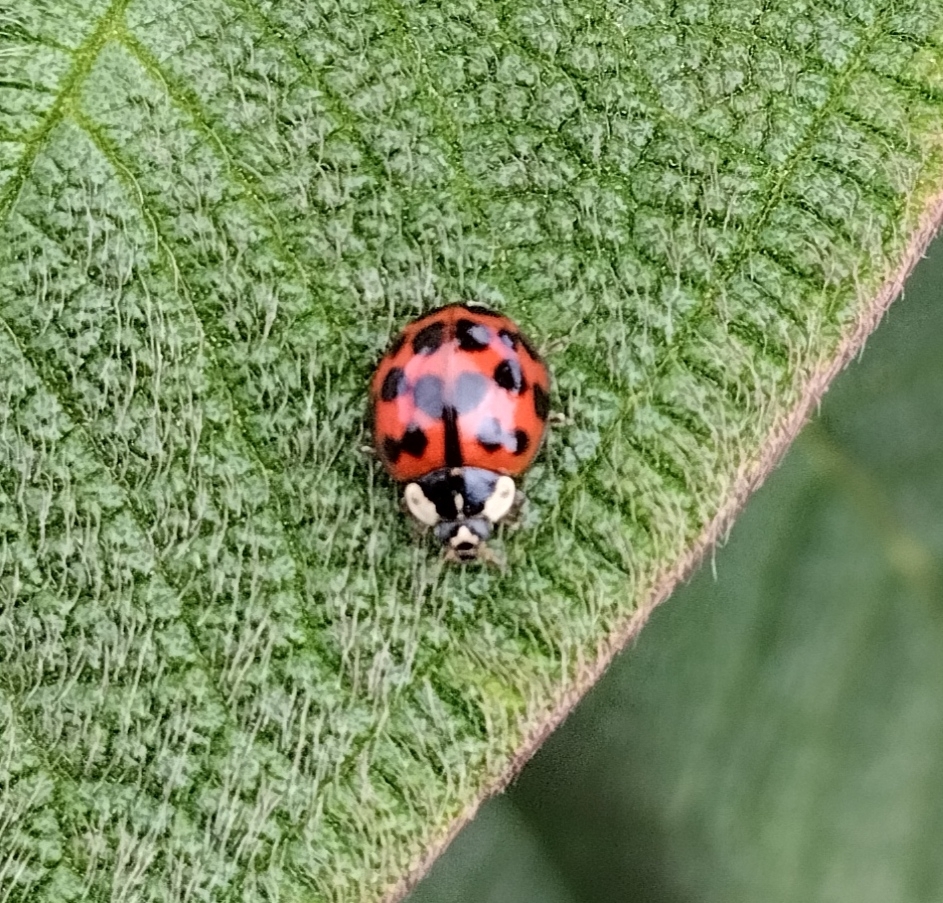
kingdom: Animalia
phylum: Arthropoda
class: Insecta
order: Coleoptera
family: Coccinellidae
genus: Harmonia
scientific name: Harmonia axyridis
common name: Harlequin ladybird
